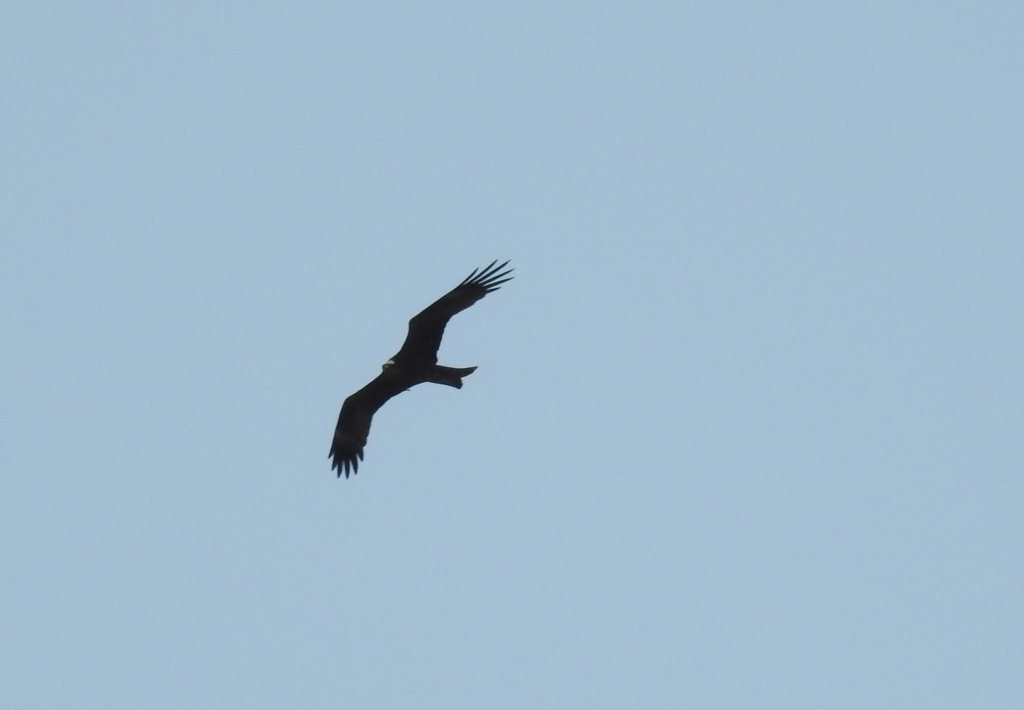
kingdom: Animalia
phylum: Chordata
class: Aves
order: Accipitriformes
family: Accipitridae
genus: Milvus
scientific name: Milvus migrans
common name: Black kite
